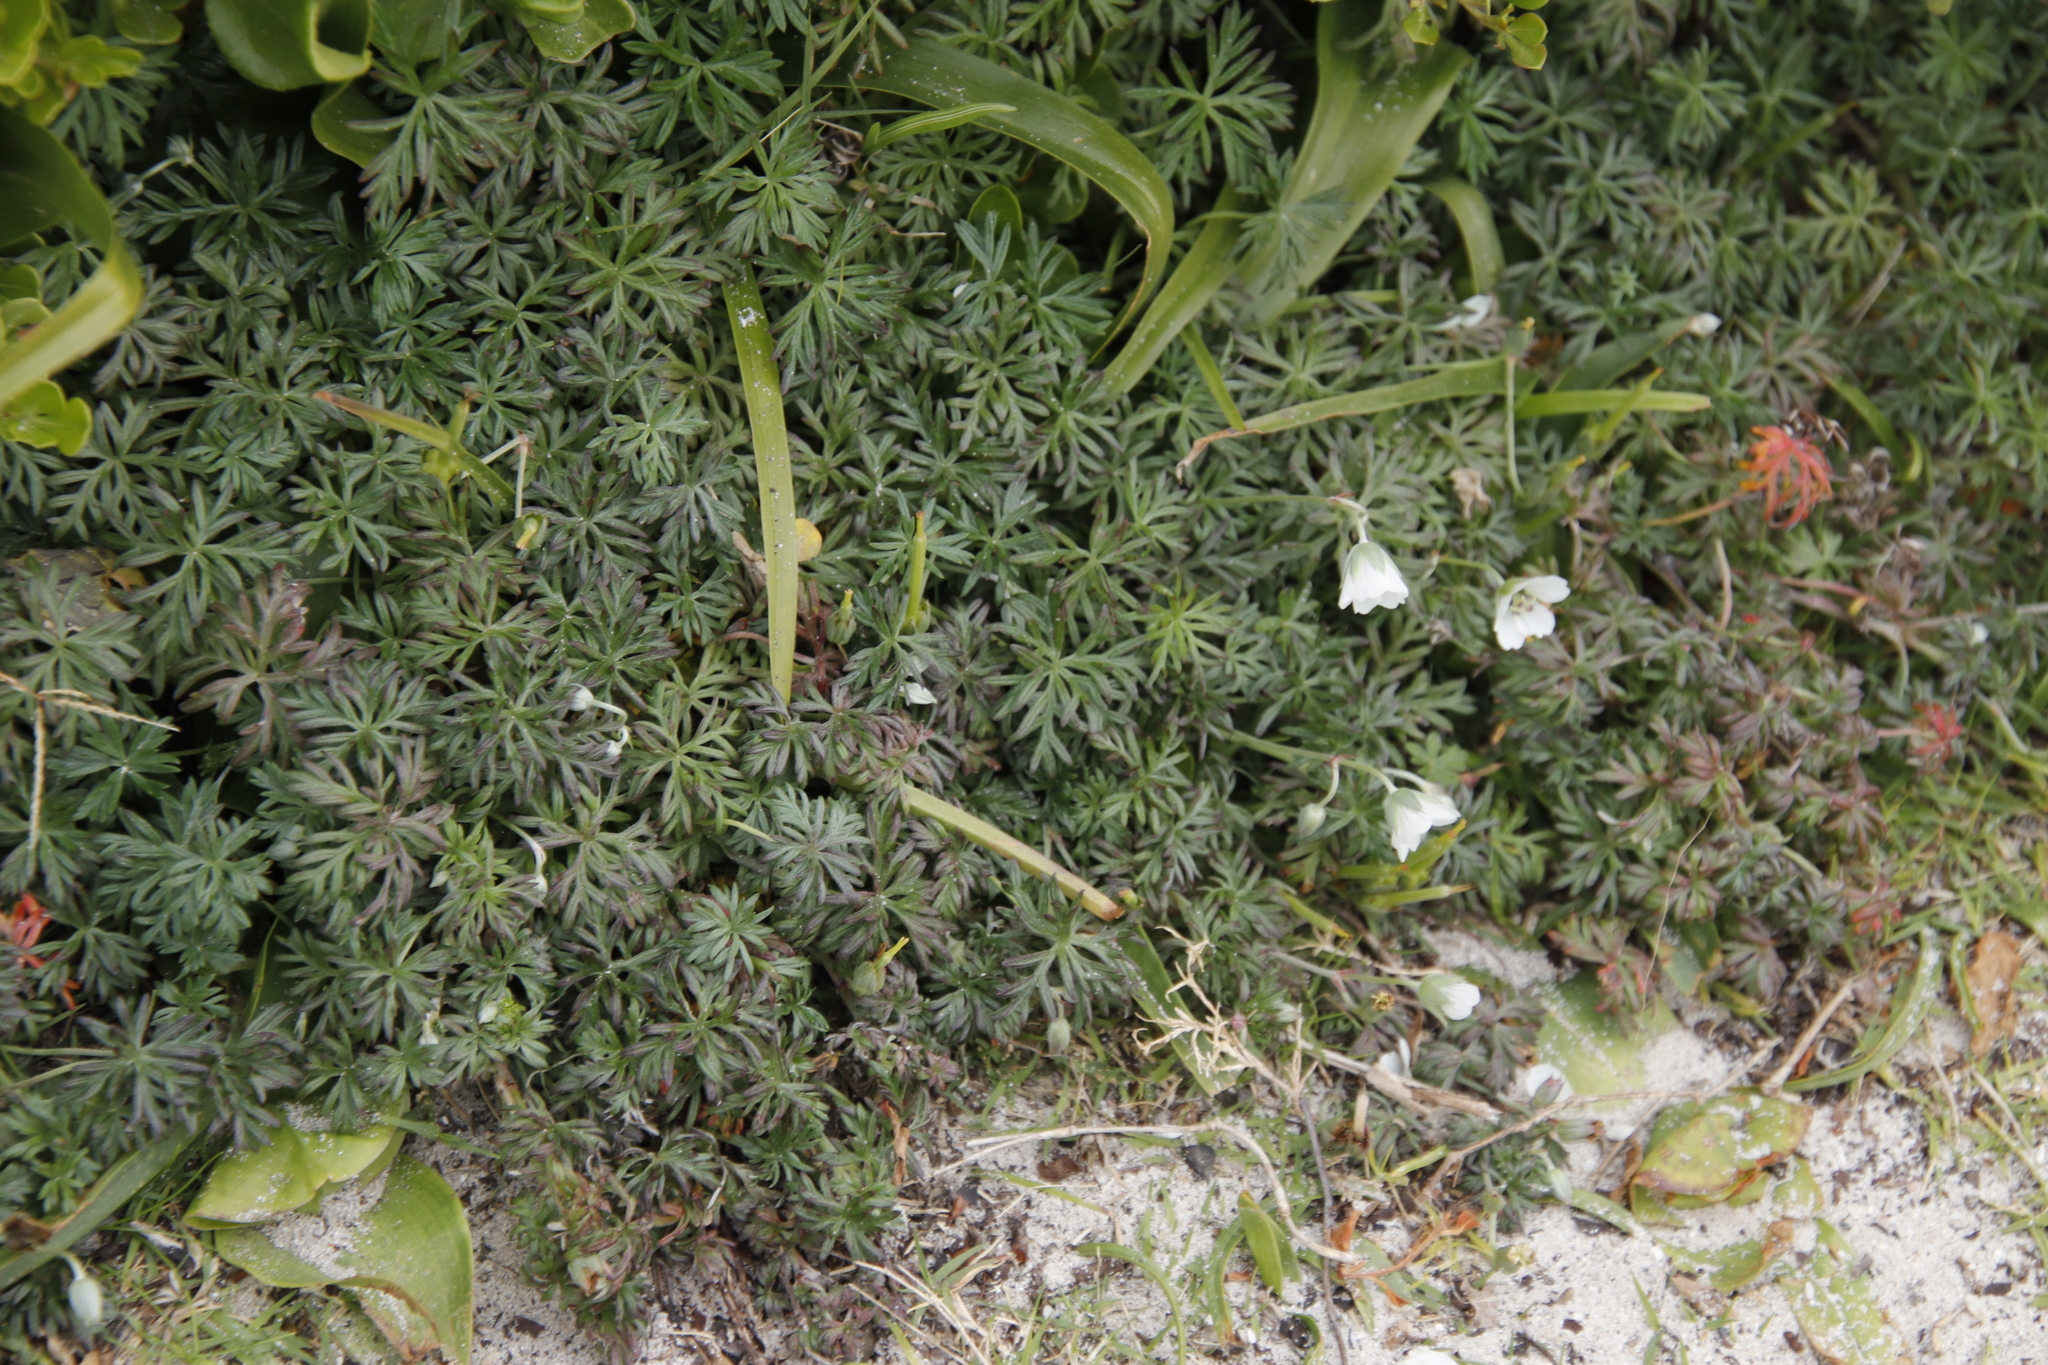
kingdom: Plantae
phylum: Tracheophyta
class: Magnoliopsida
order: Geraniales
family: Geraniaceae
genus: Geranium
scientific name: Geranium incanum
